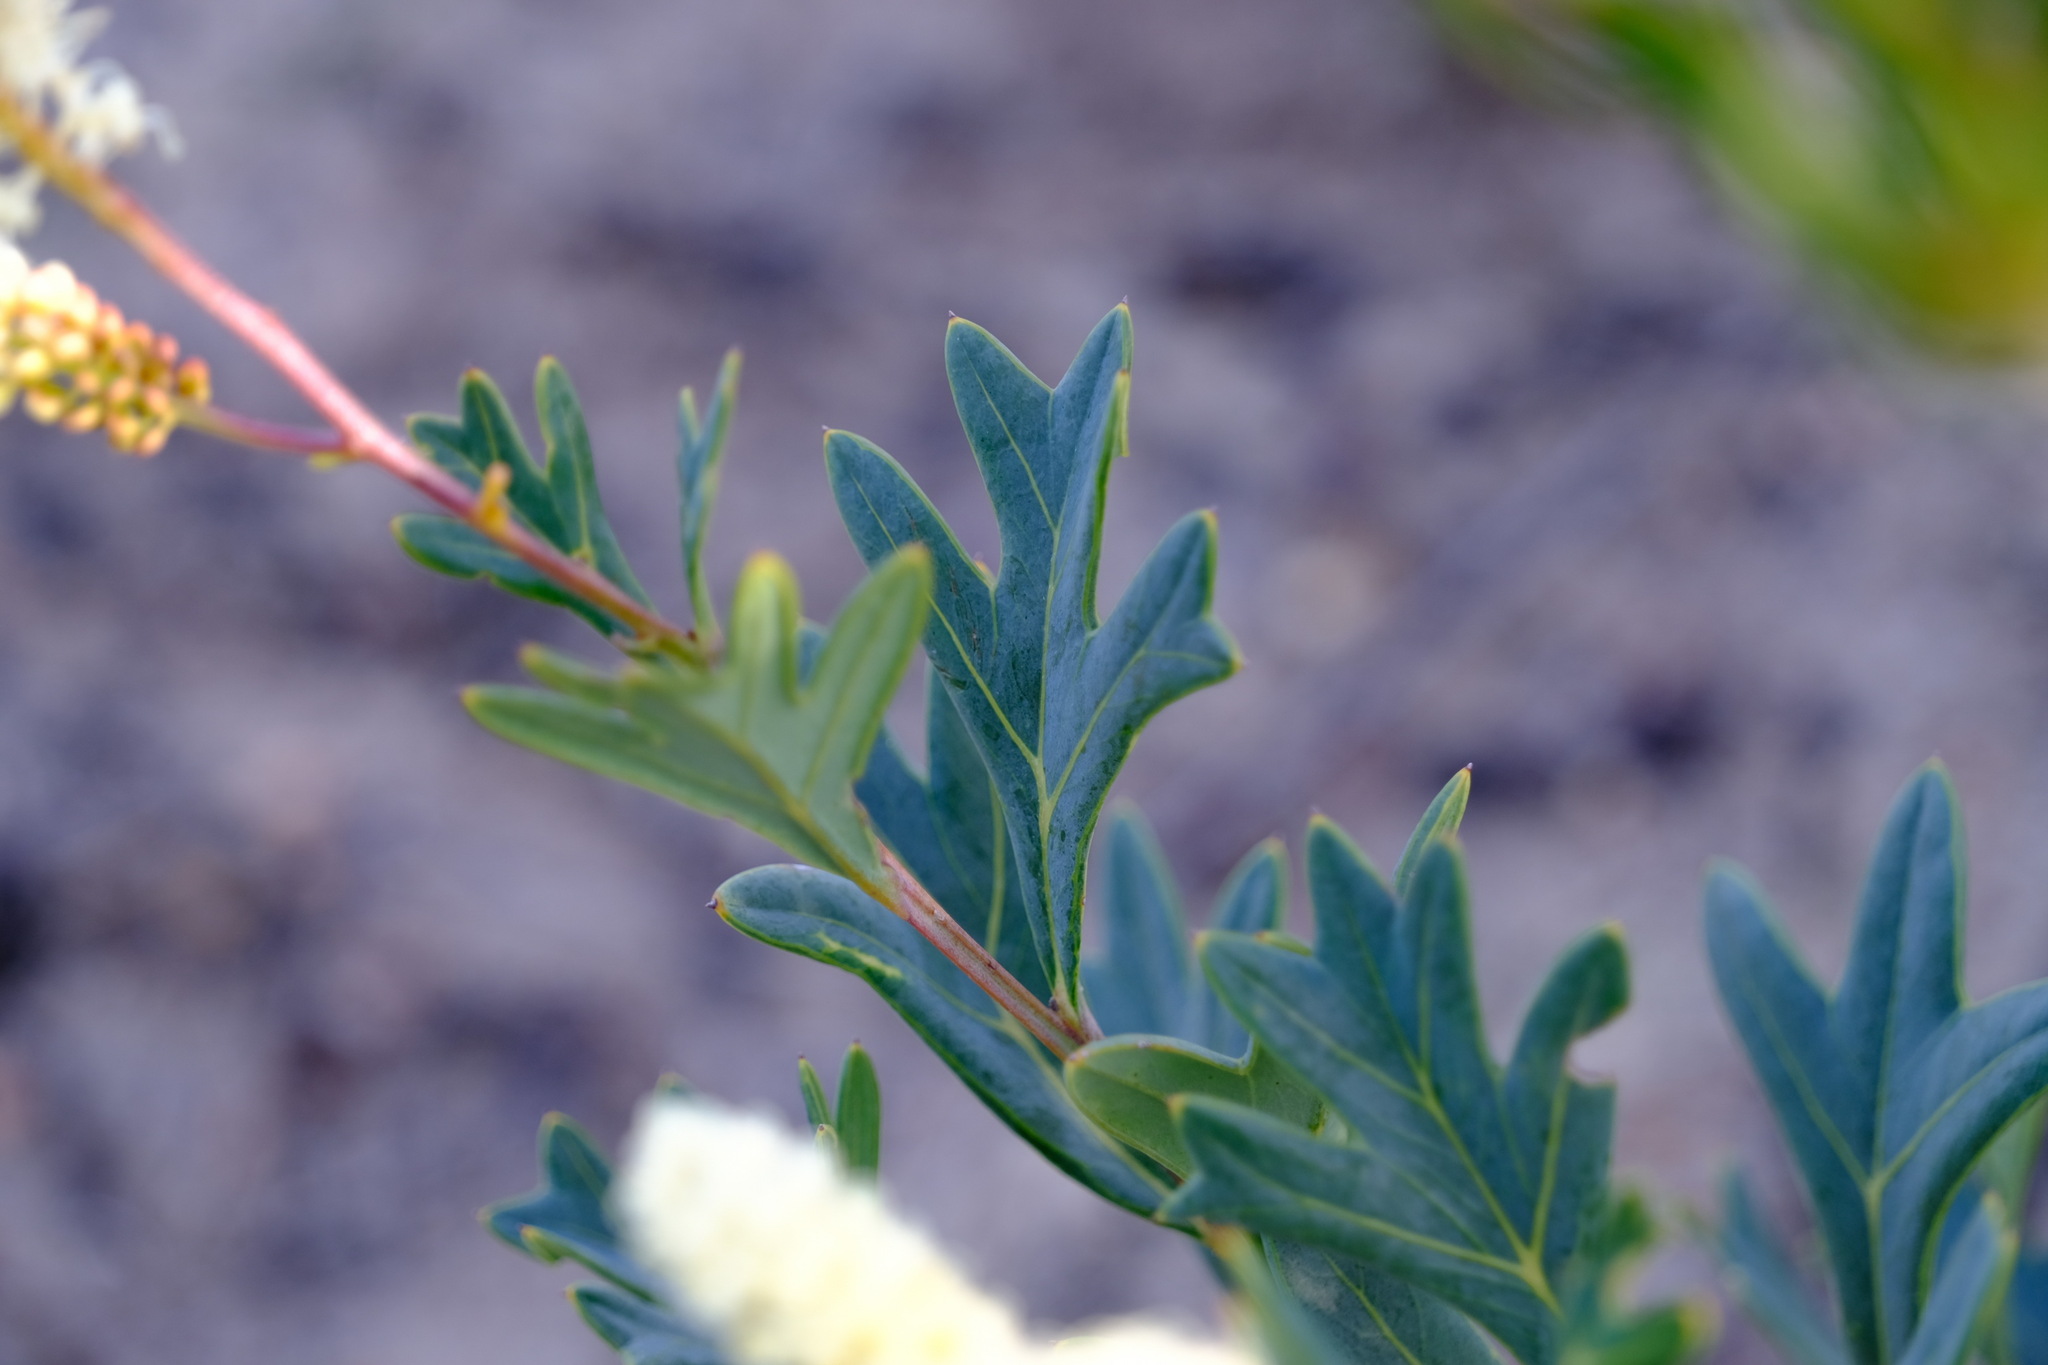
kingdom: Plantae
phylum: Tracheophyta
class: Magnoliopsida
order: Proteales
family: Proteaceae
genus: Grevillea
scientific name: Grevillea synaphea
